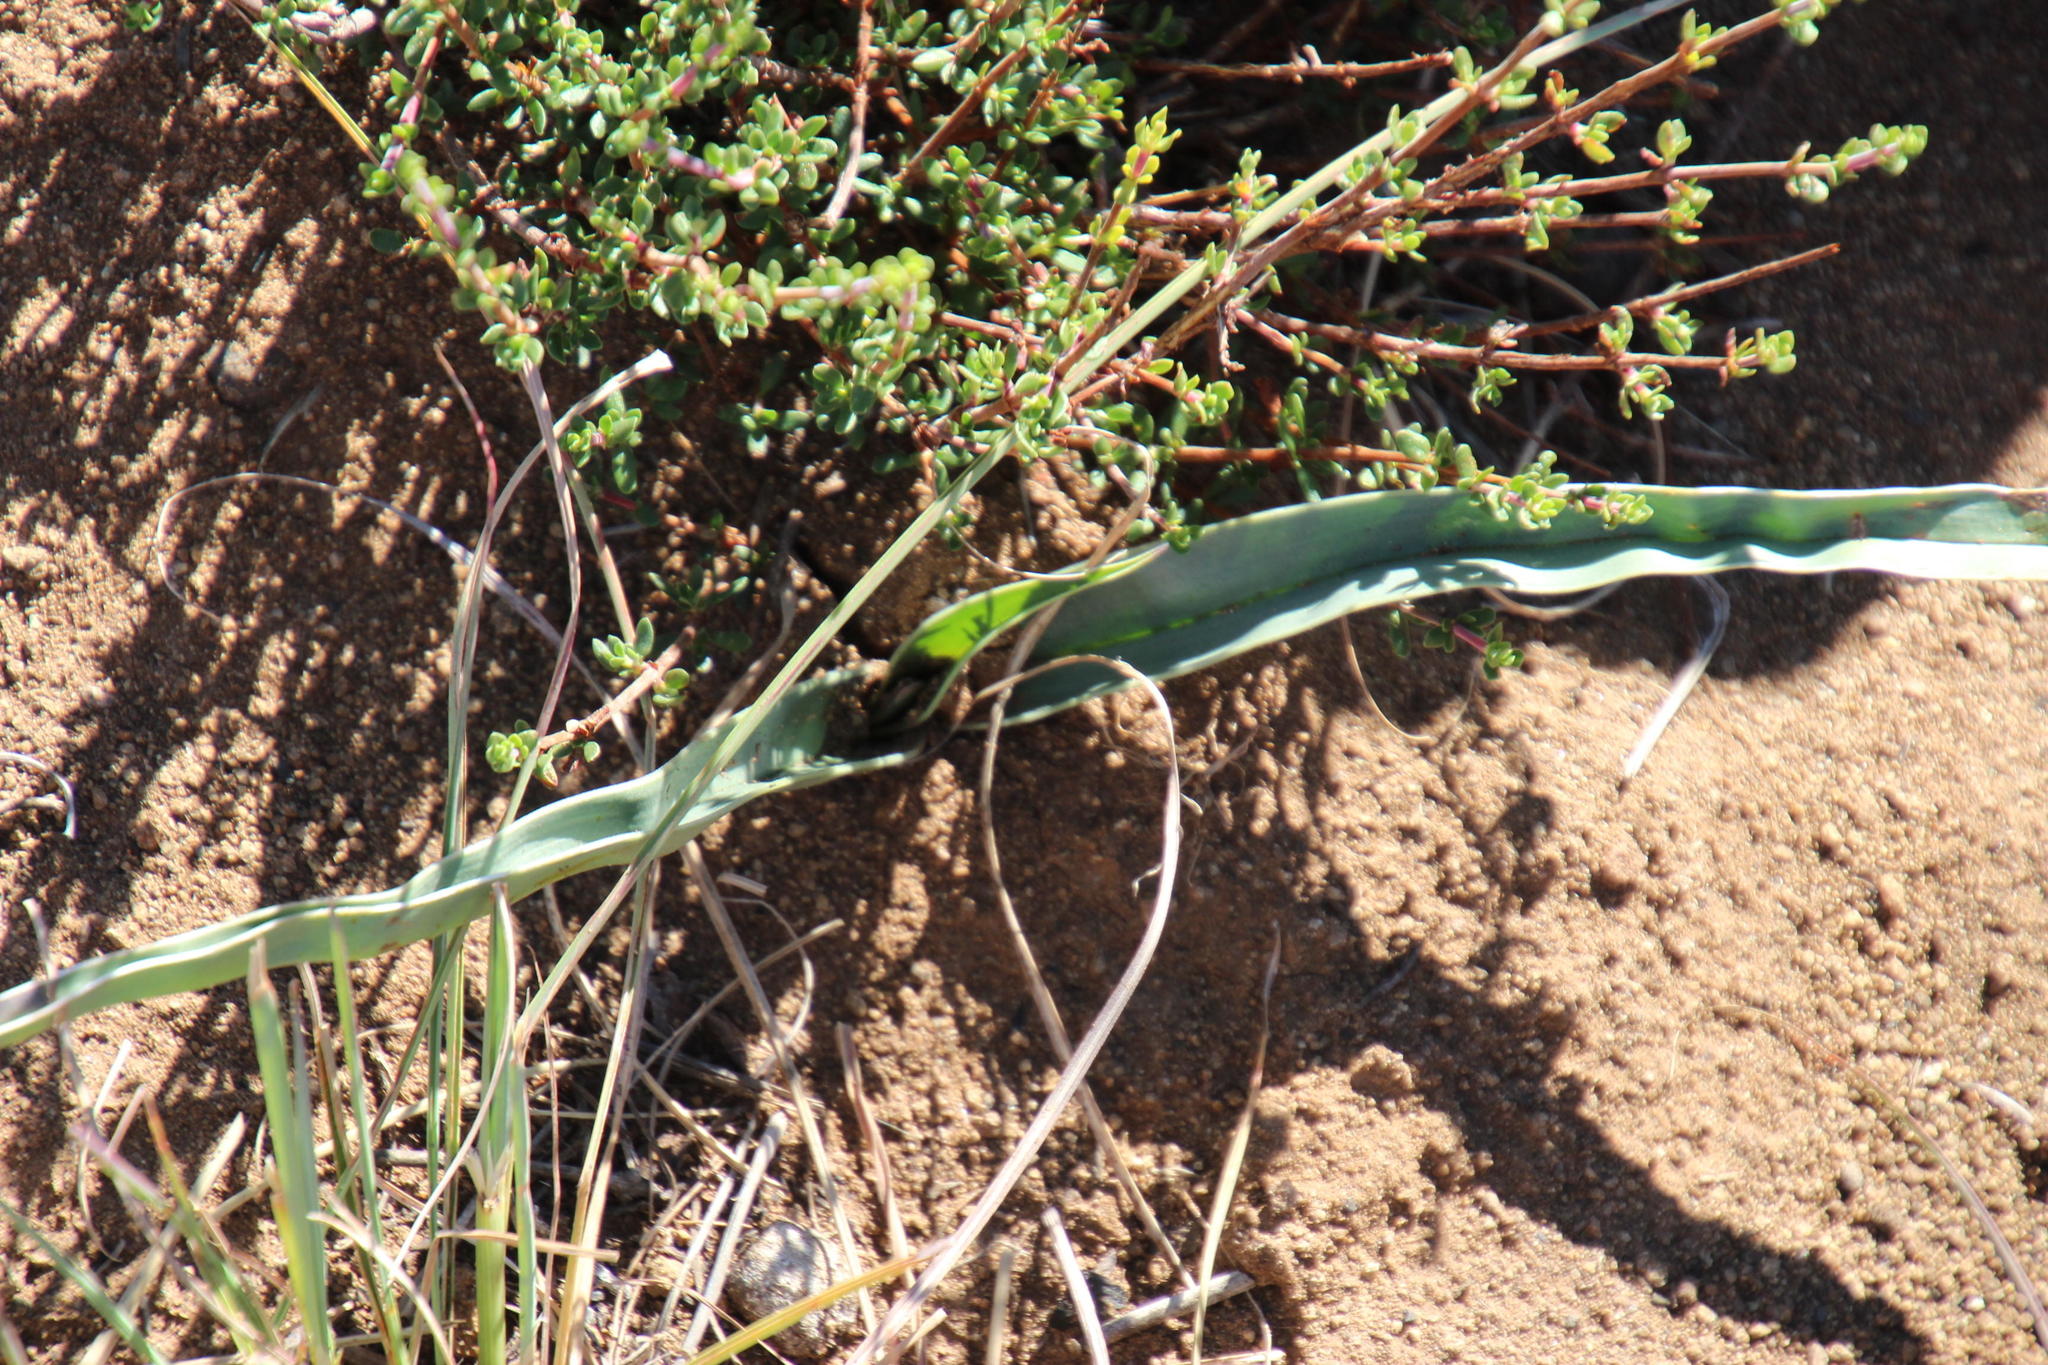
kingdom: Plantae
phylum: Tracheophyta
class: Liliopsida
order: Liliales
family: Colchicaceae
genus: Ornithoglossum
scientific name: Ornithoglossum undulatum
